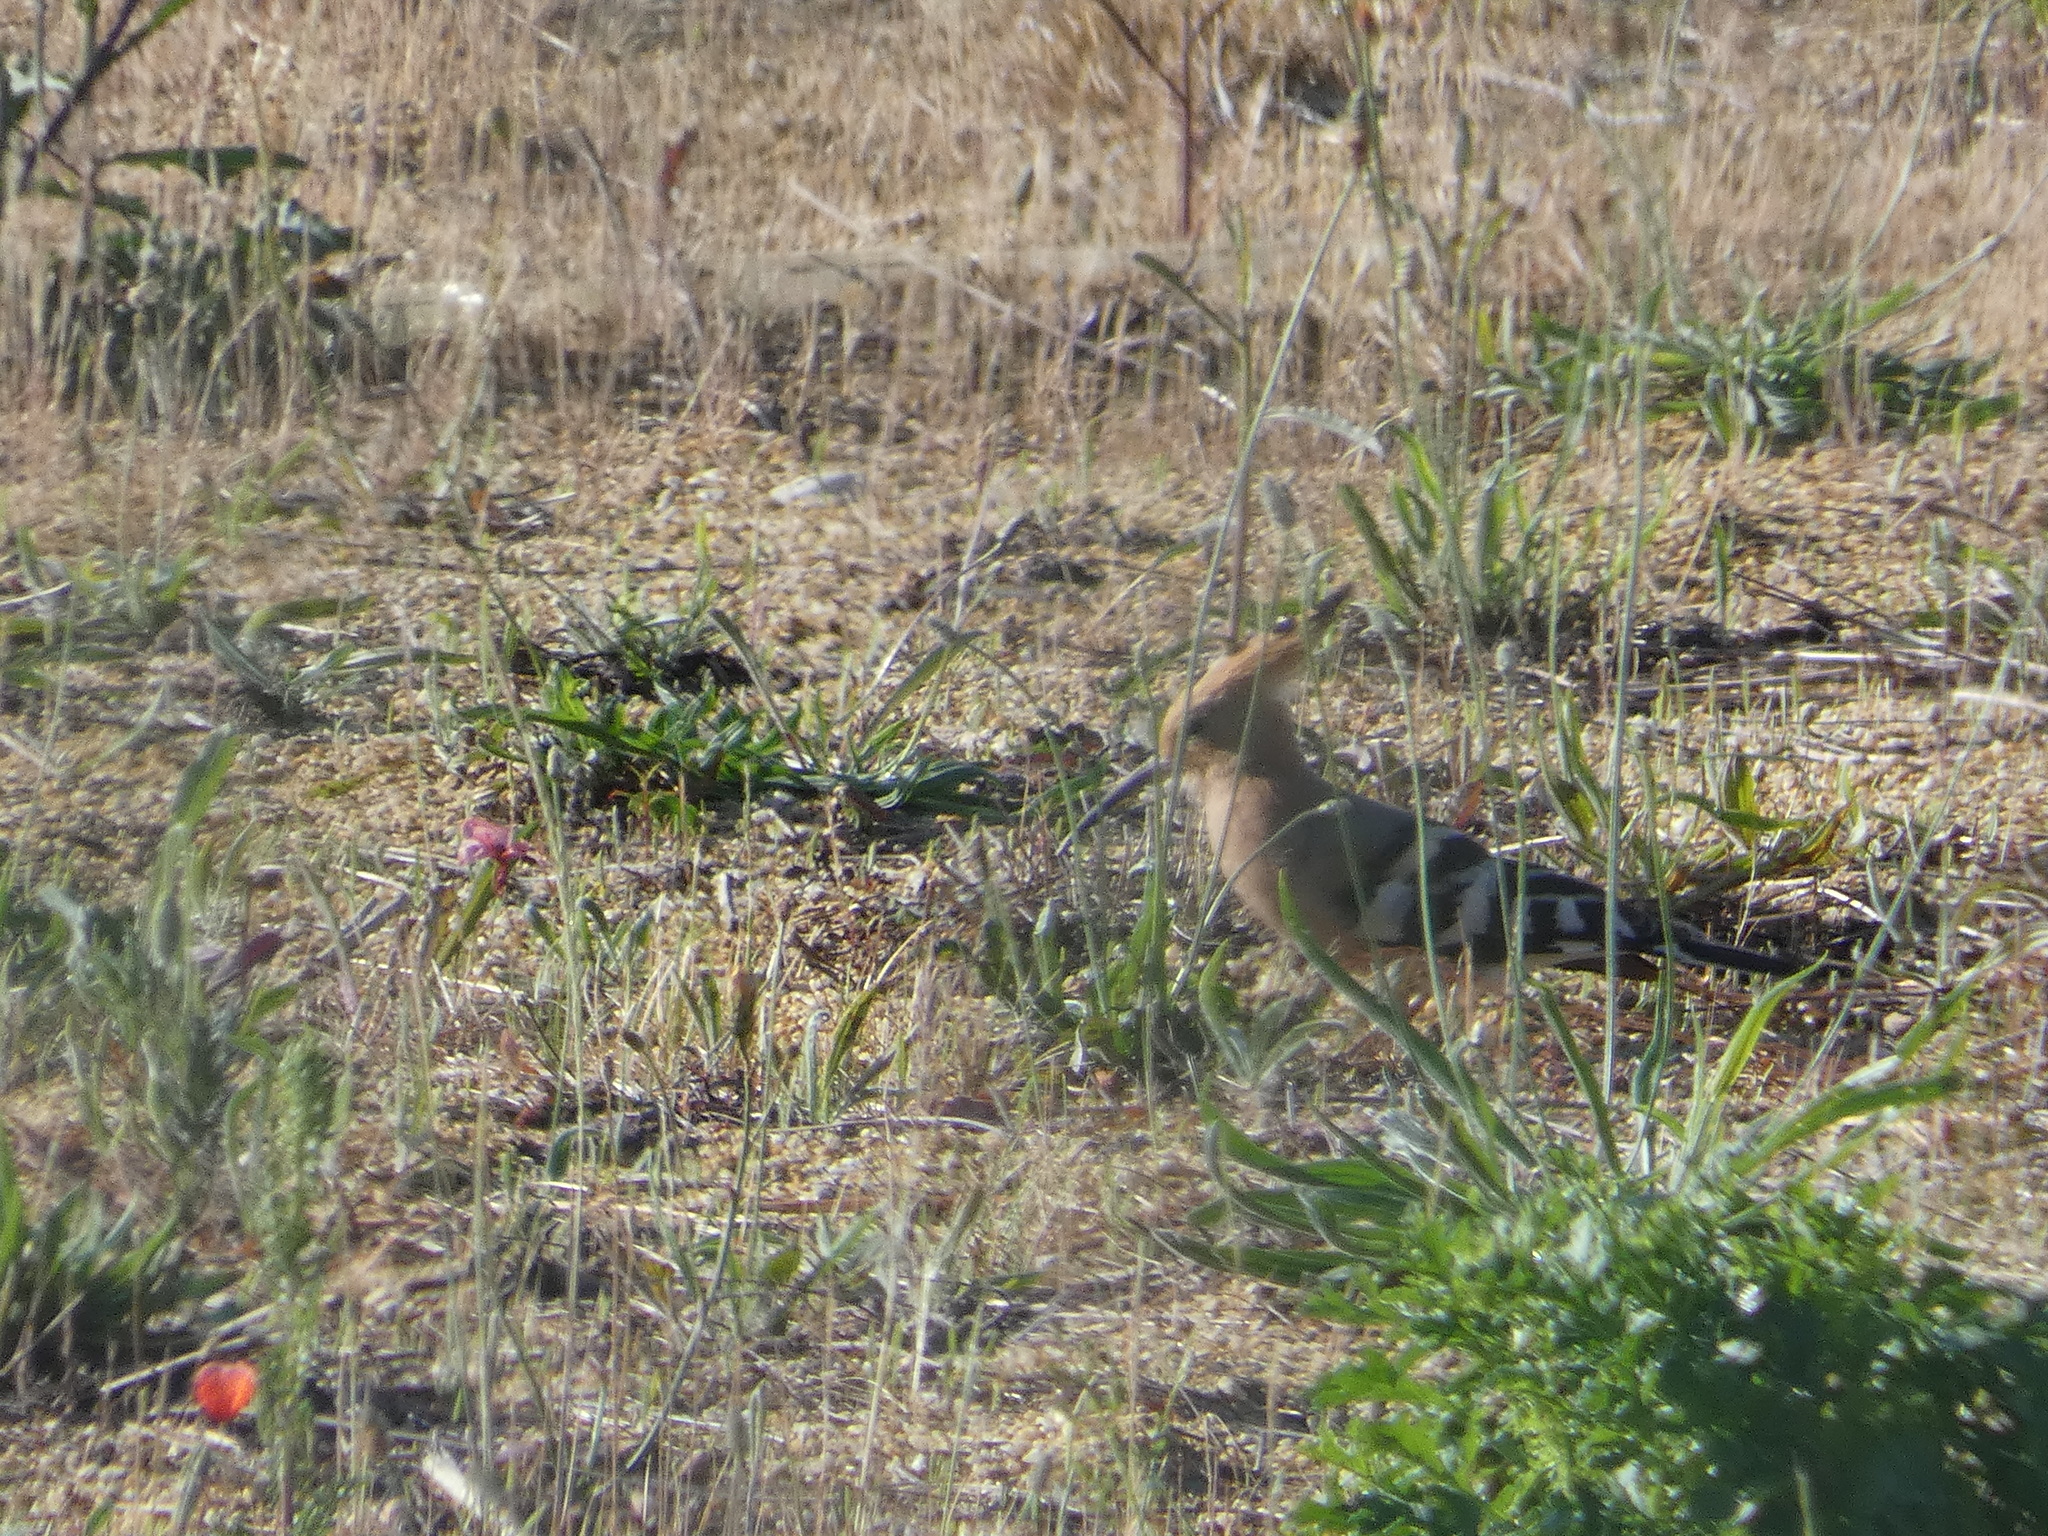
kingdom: Animalia
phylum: Chordata
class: Aves
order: Bucerotiformes
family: Upupidae
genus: Upupa
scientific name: Upupa epops
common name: Eurasian hoopoe
